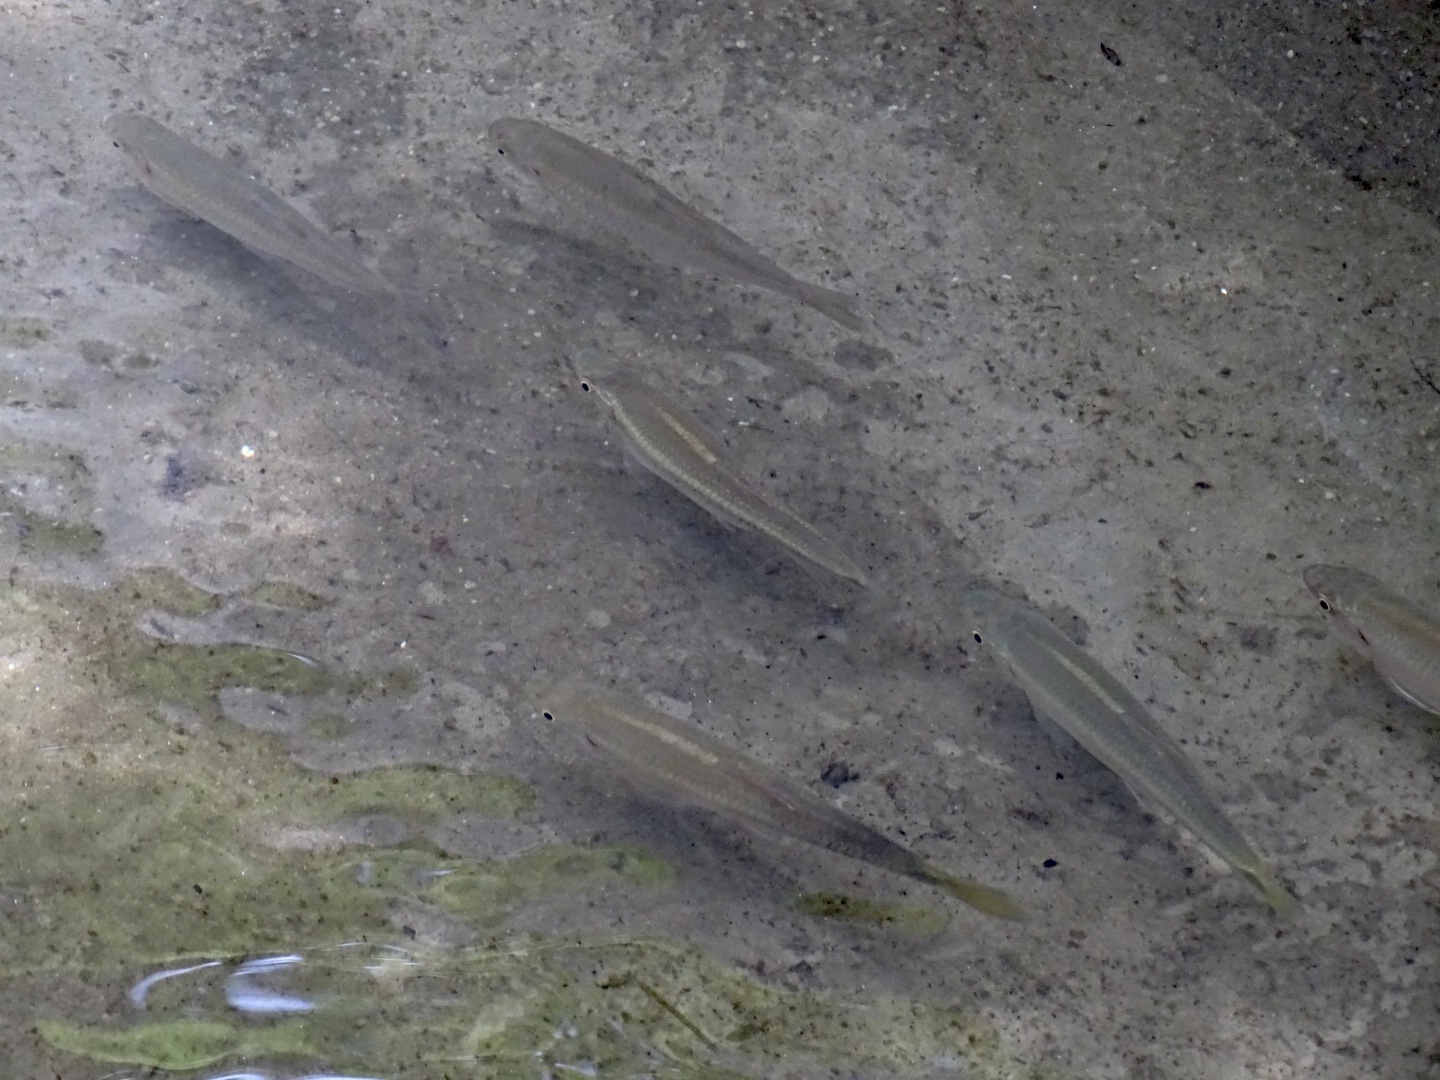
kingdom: Animalia
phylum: Chordata
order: Cypriniformes
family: Cyprinidae
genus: Parazacco
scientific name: Parazacco spilurus
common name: Predaceous chub
